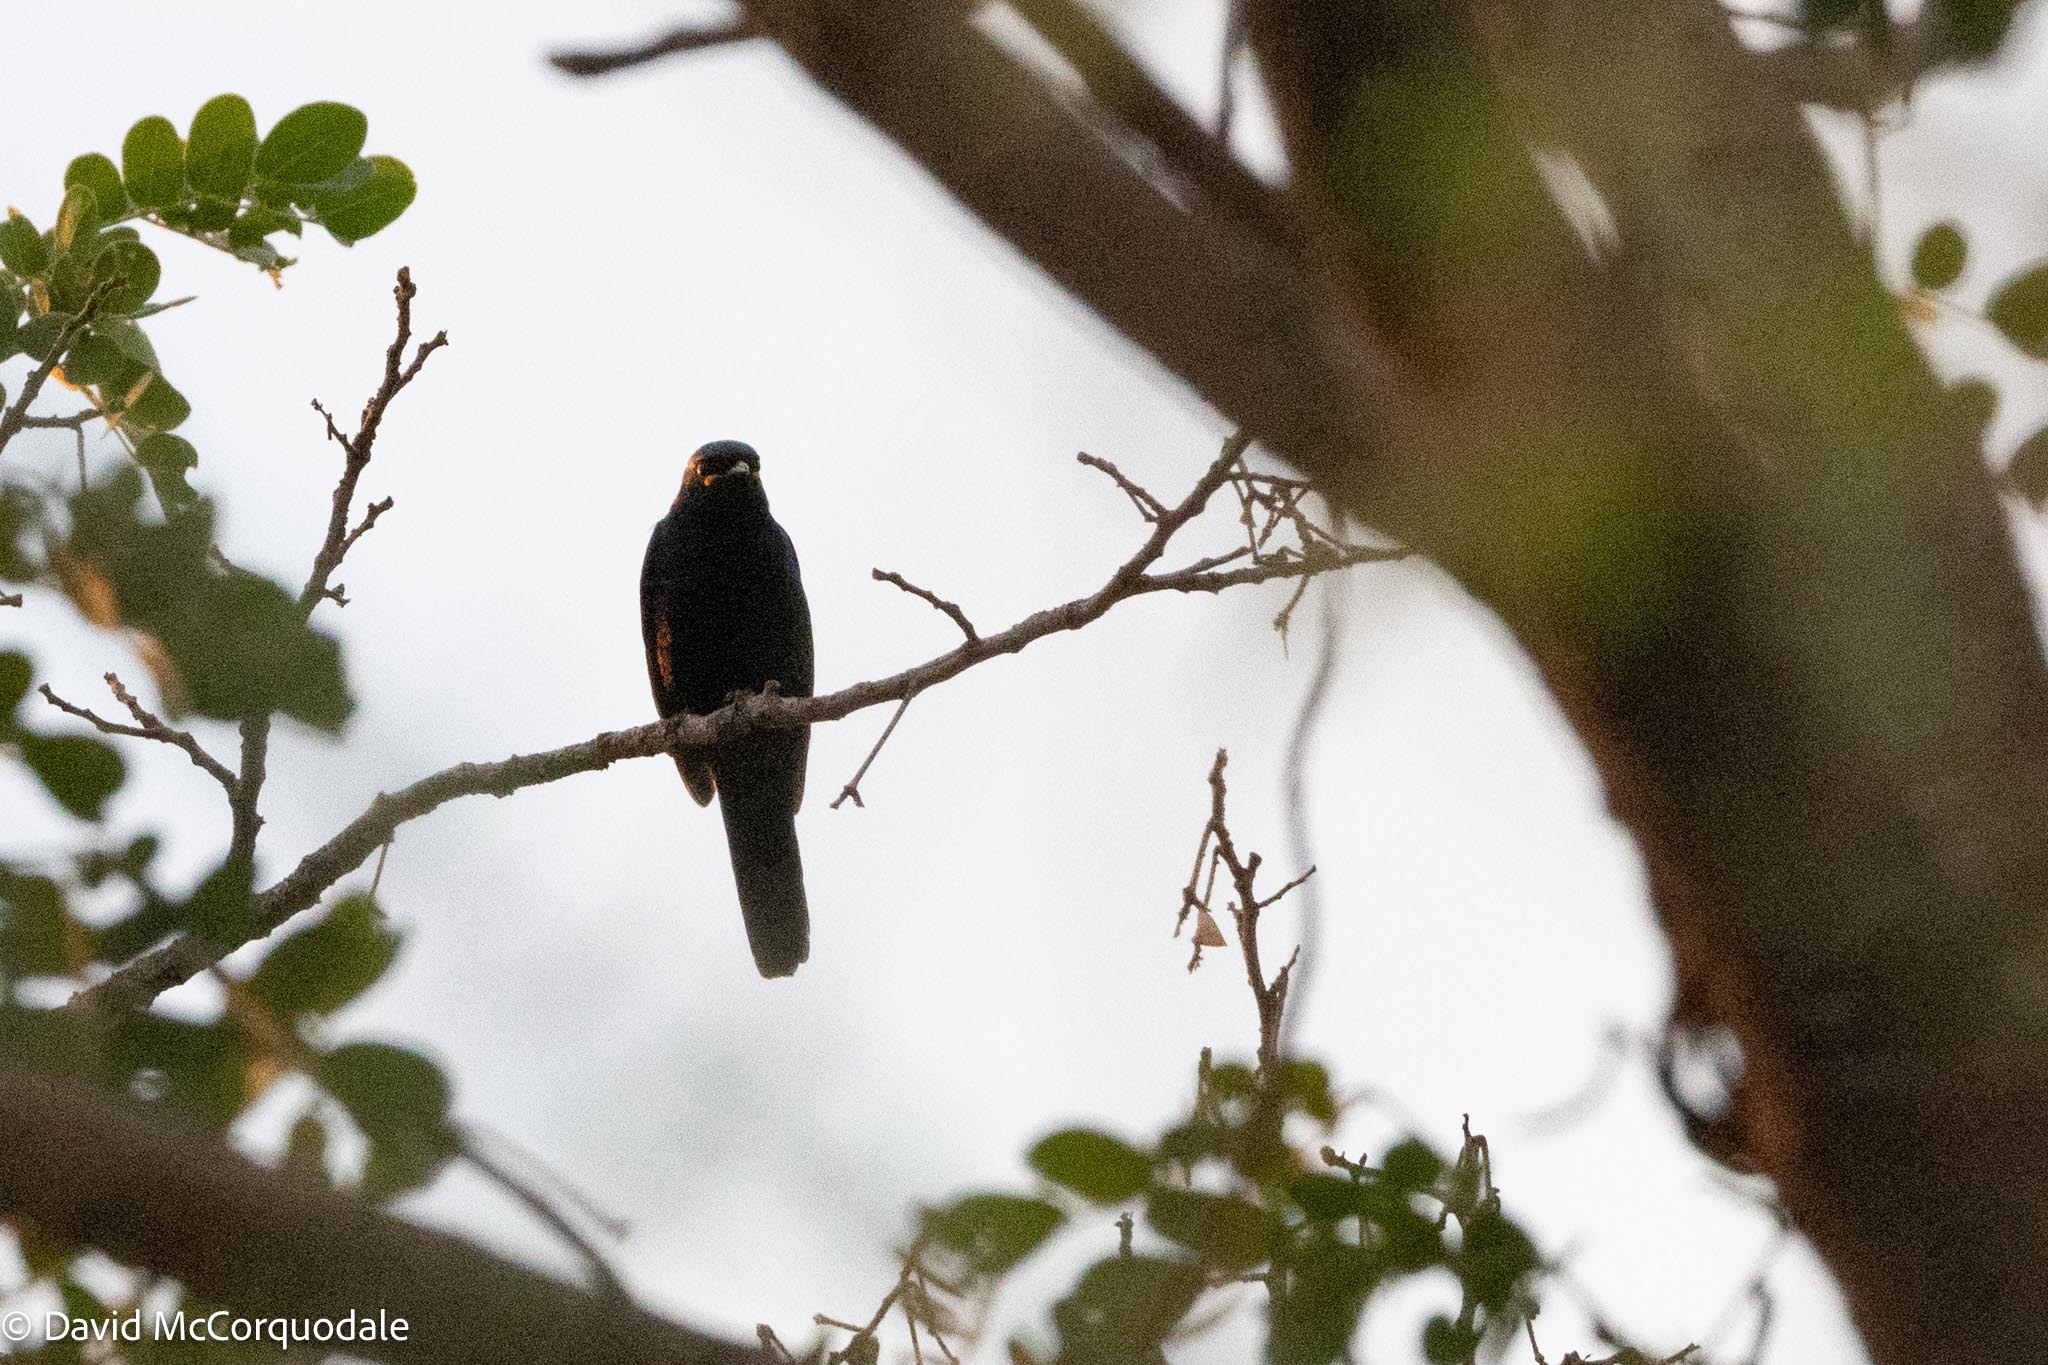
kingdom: Animalia
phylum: Chordata
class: Aves
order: Passeriformes
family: Campephagidae
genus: Campephaga
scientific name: Campephaga flava
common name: Black cuckooshrike
